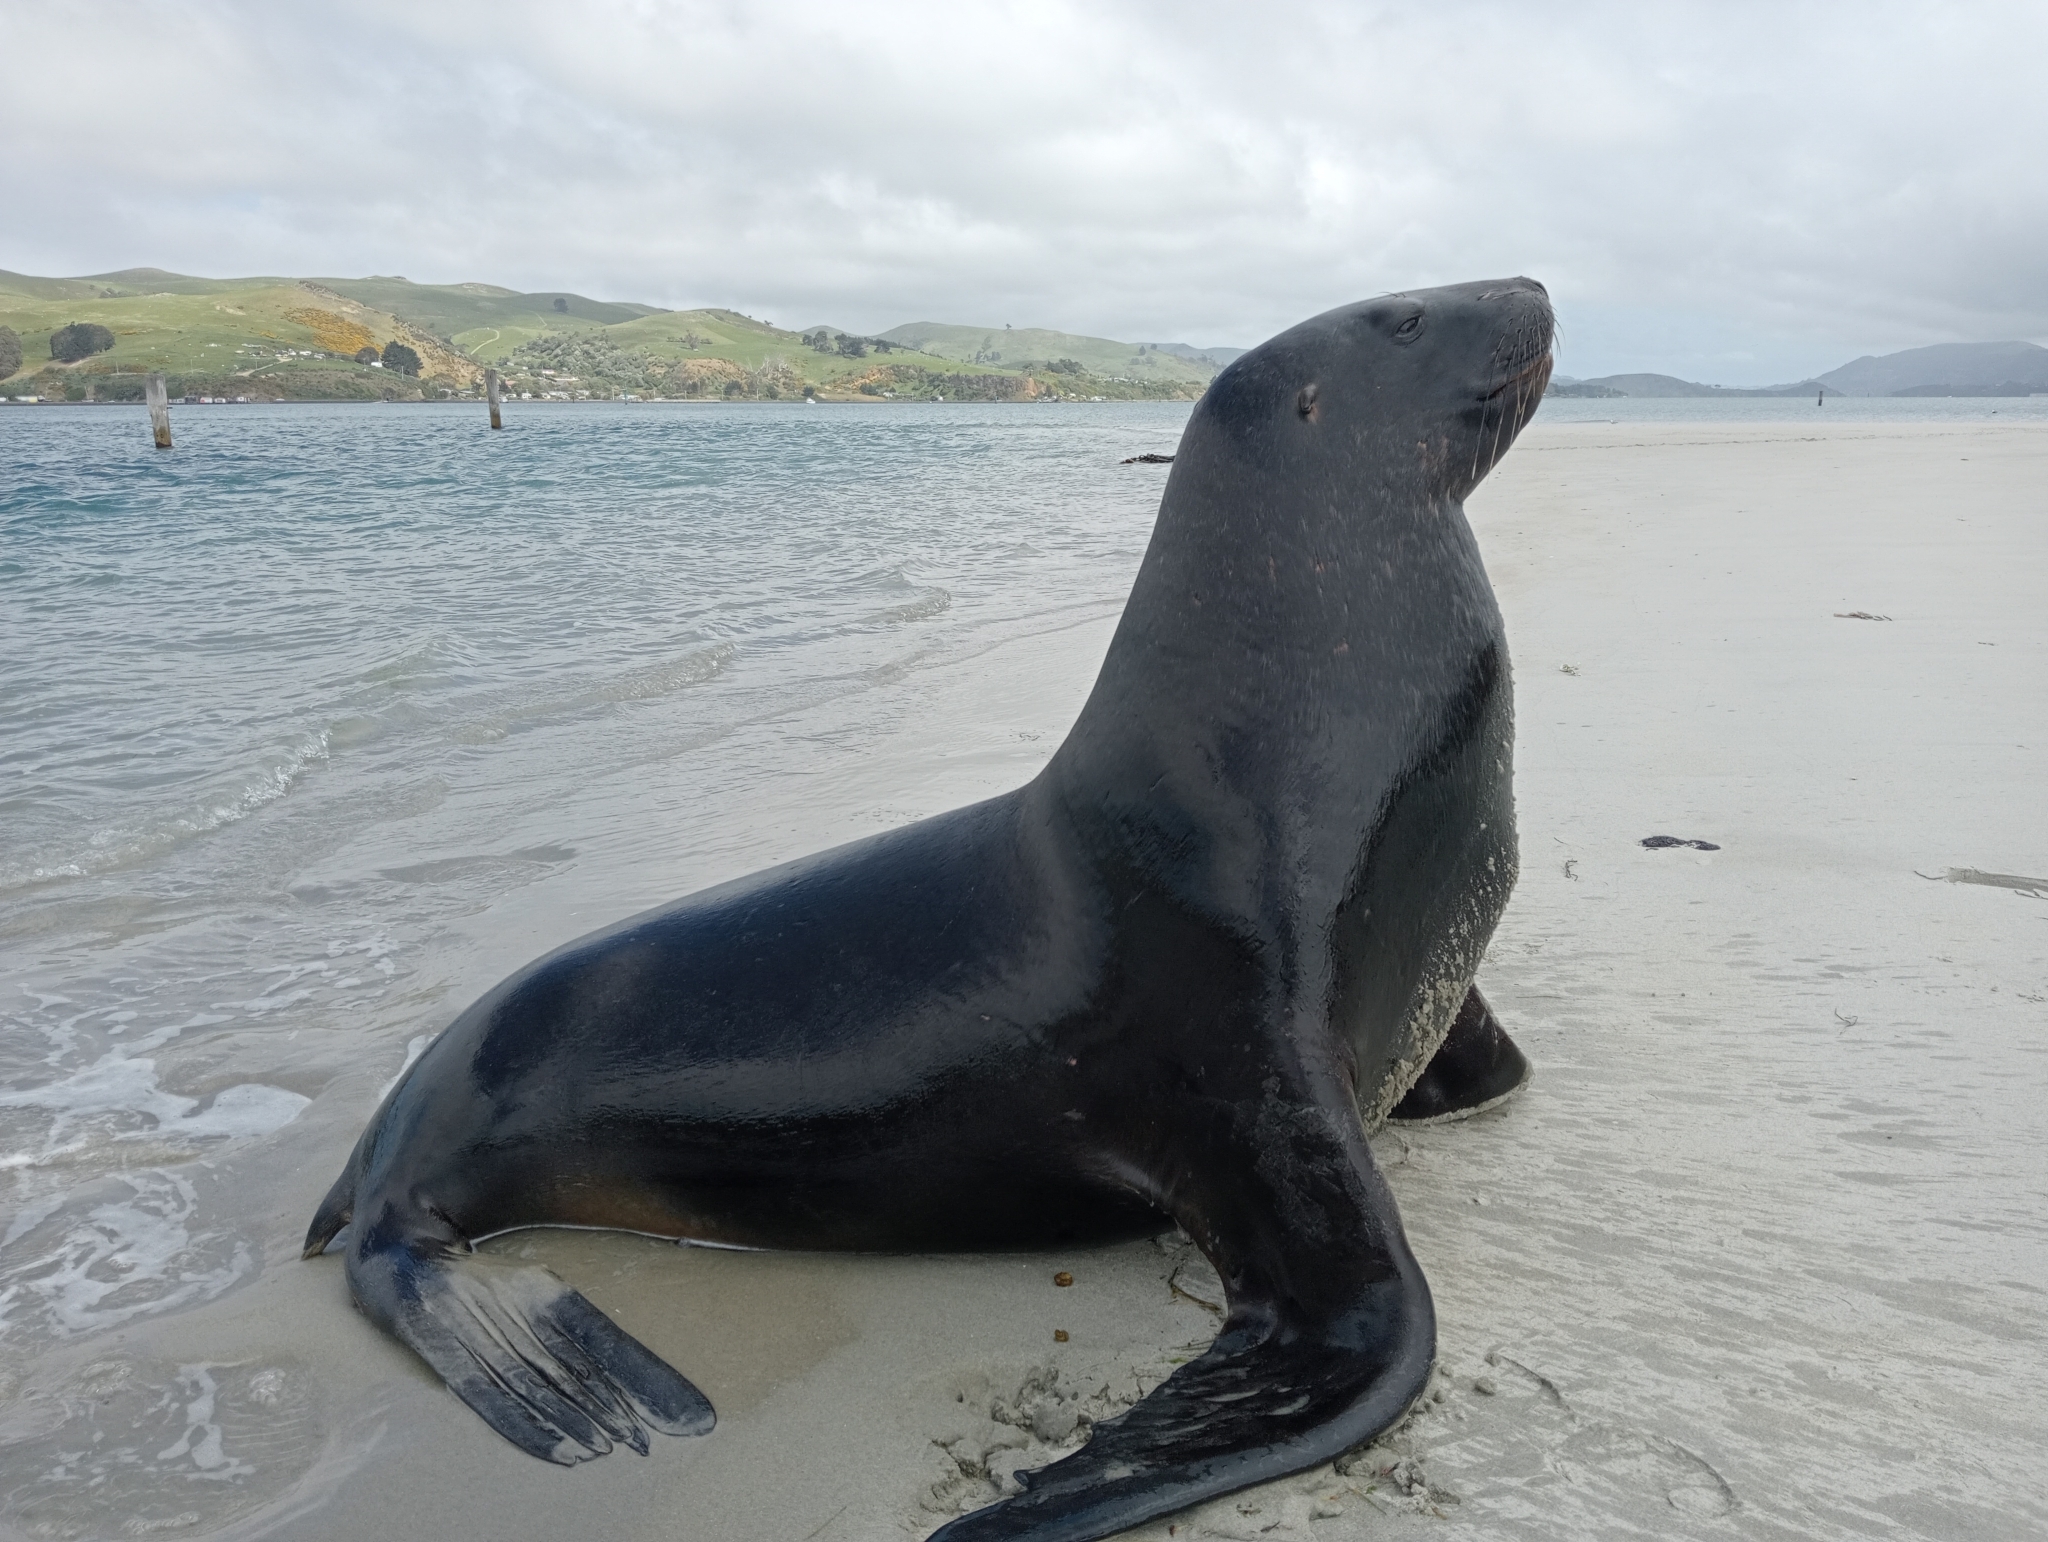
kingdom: Animalia
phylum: Chordata
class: Mammalia
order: Carnivora
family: Otariidae
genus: Phocarctos
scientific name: Phocarctos hookeri
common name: New zealand sea lion
